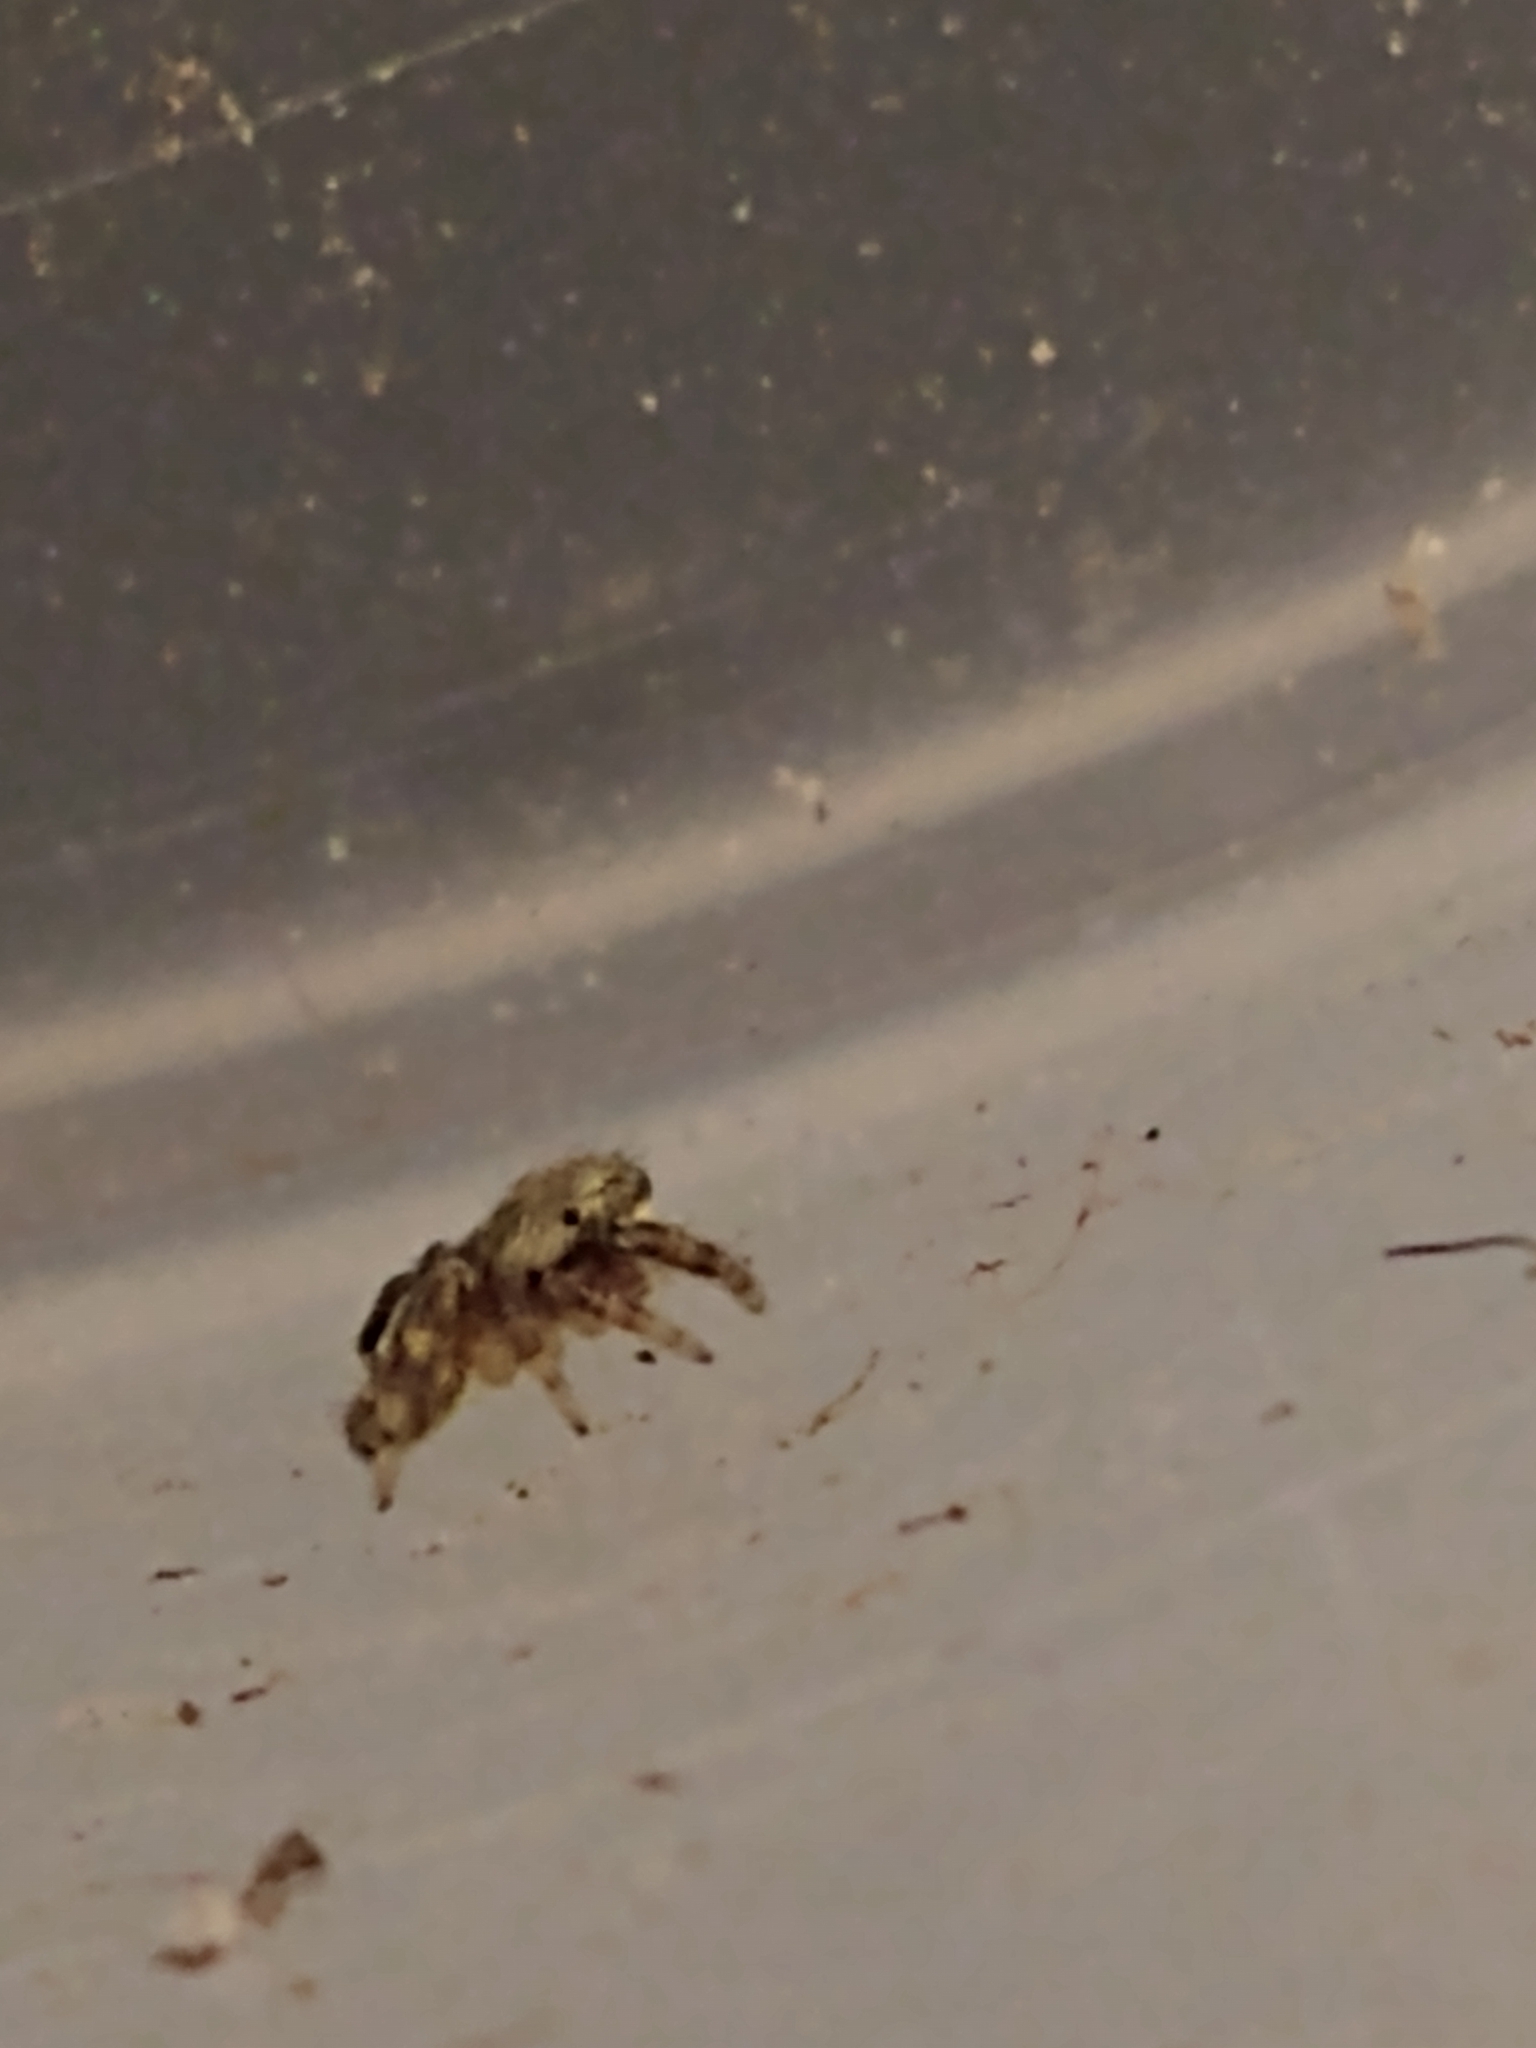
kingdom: Animalia
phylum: Arthropoda
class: Arachnida
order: Araneae
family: Salticidae
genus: Salticus
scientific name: Salticus scenicus
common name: Zebra jumper
